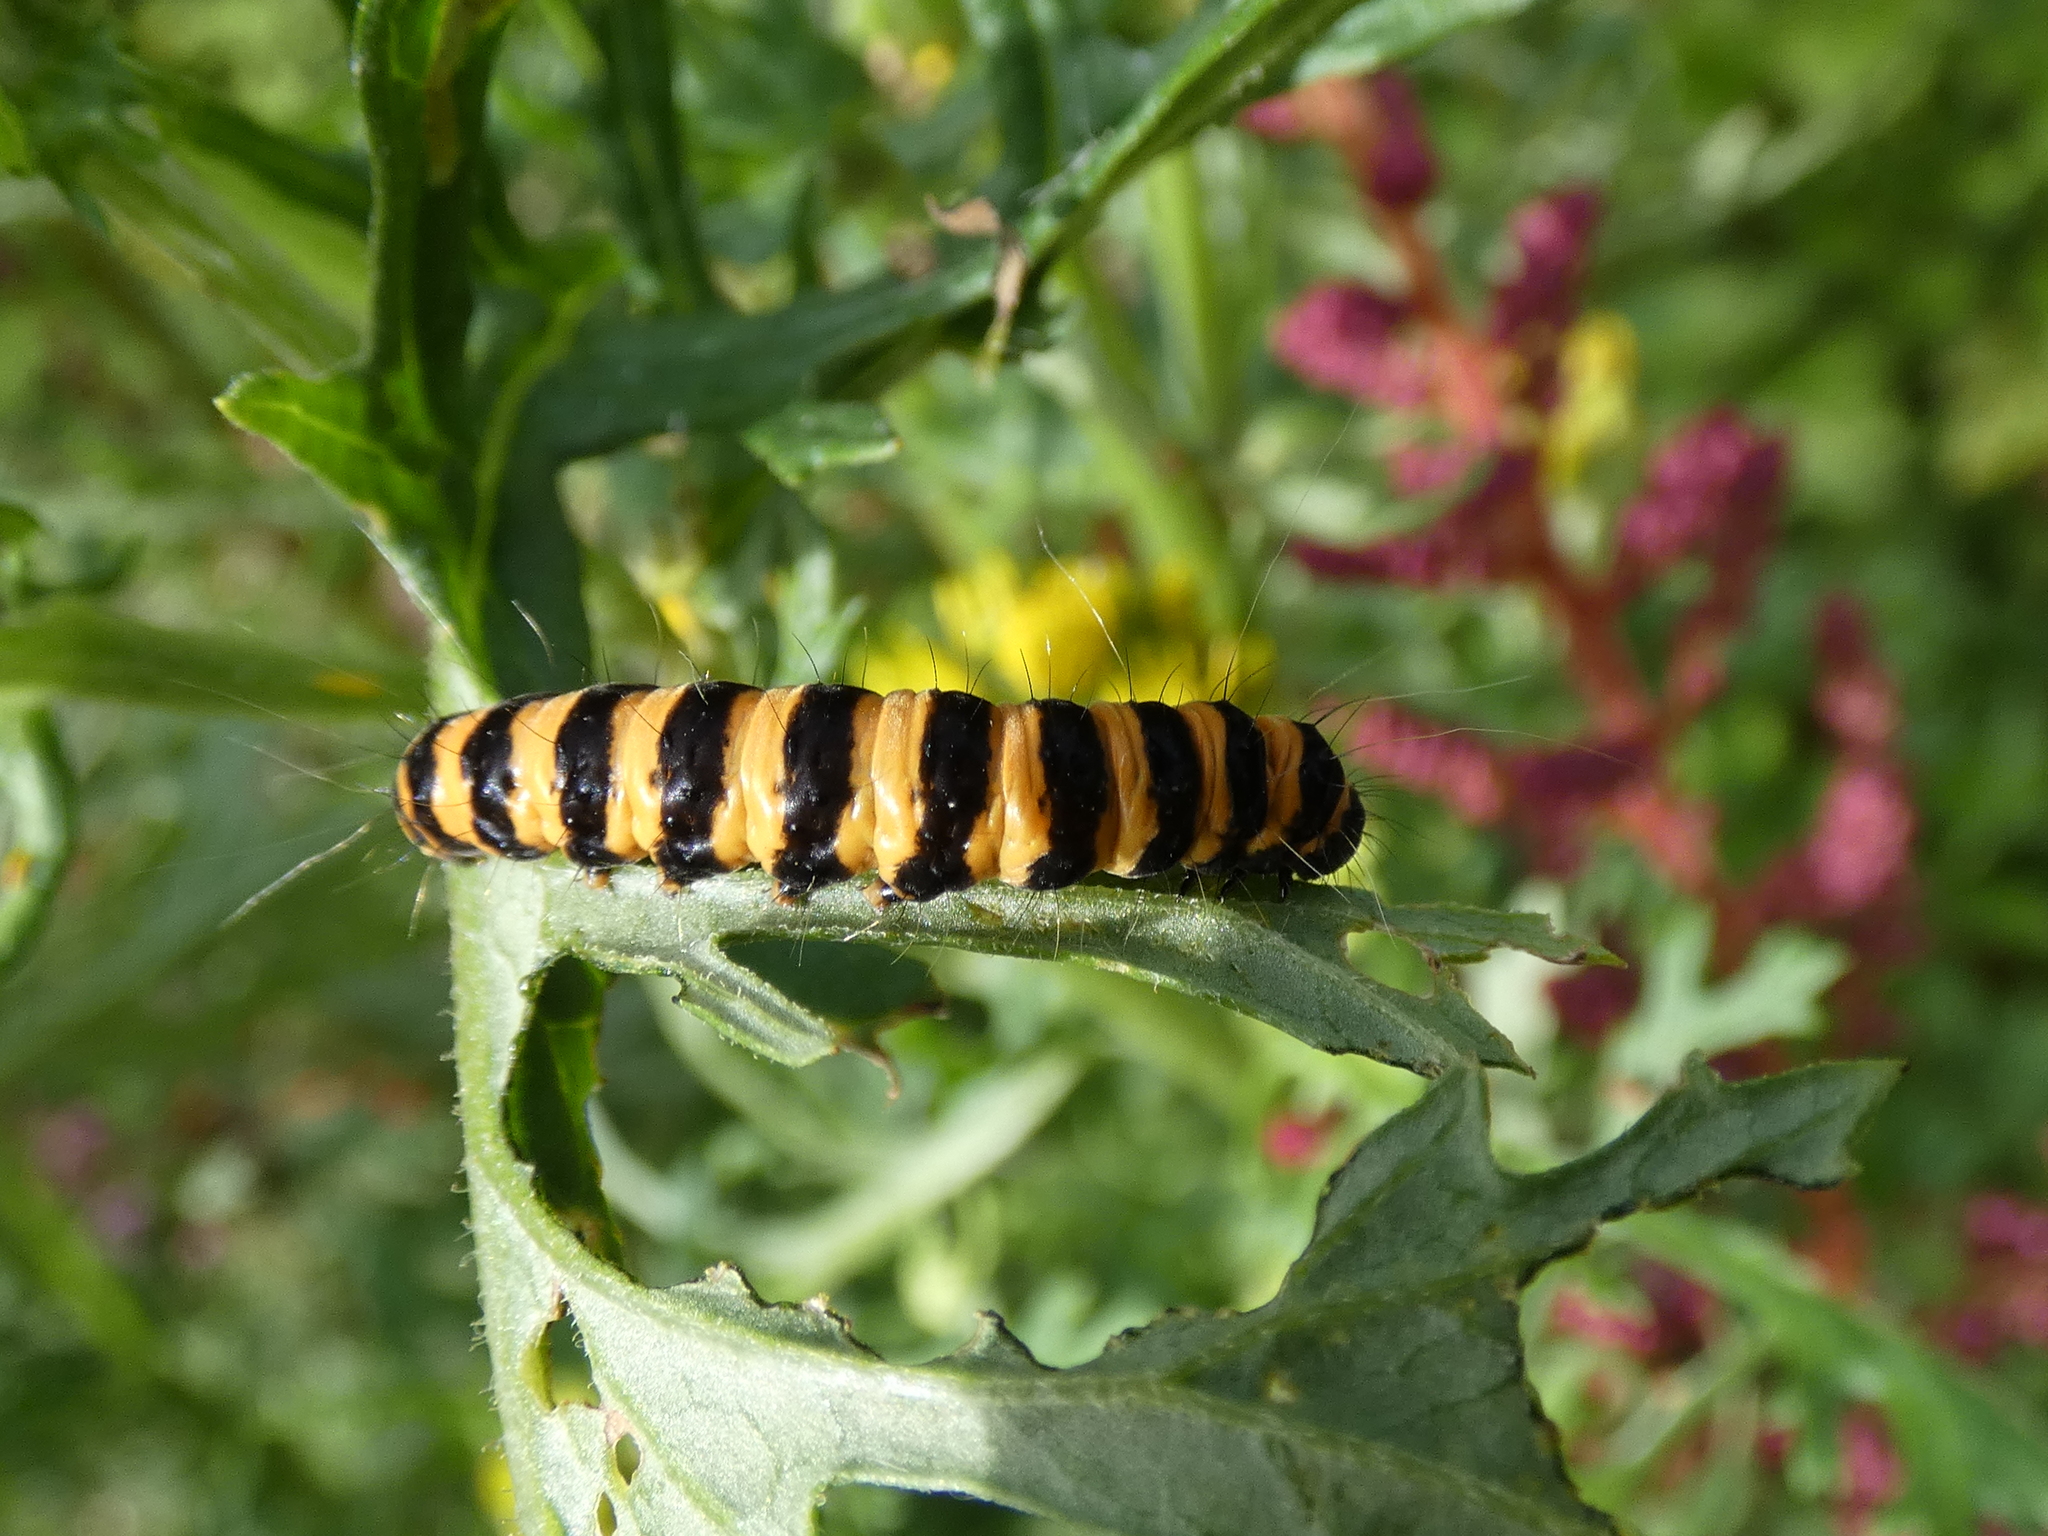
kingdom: Animalia
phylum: Arthropoda
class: Insecta
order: Lepidoptera
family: Erebidae
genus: Tyria
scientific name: Tyria jacobaeae
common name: Cinnabar
